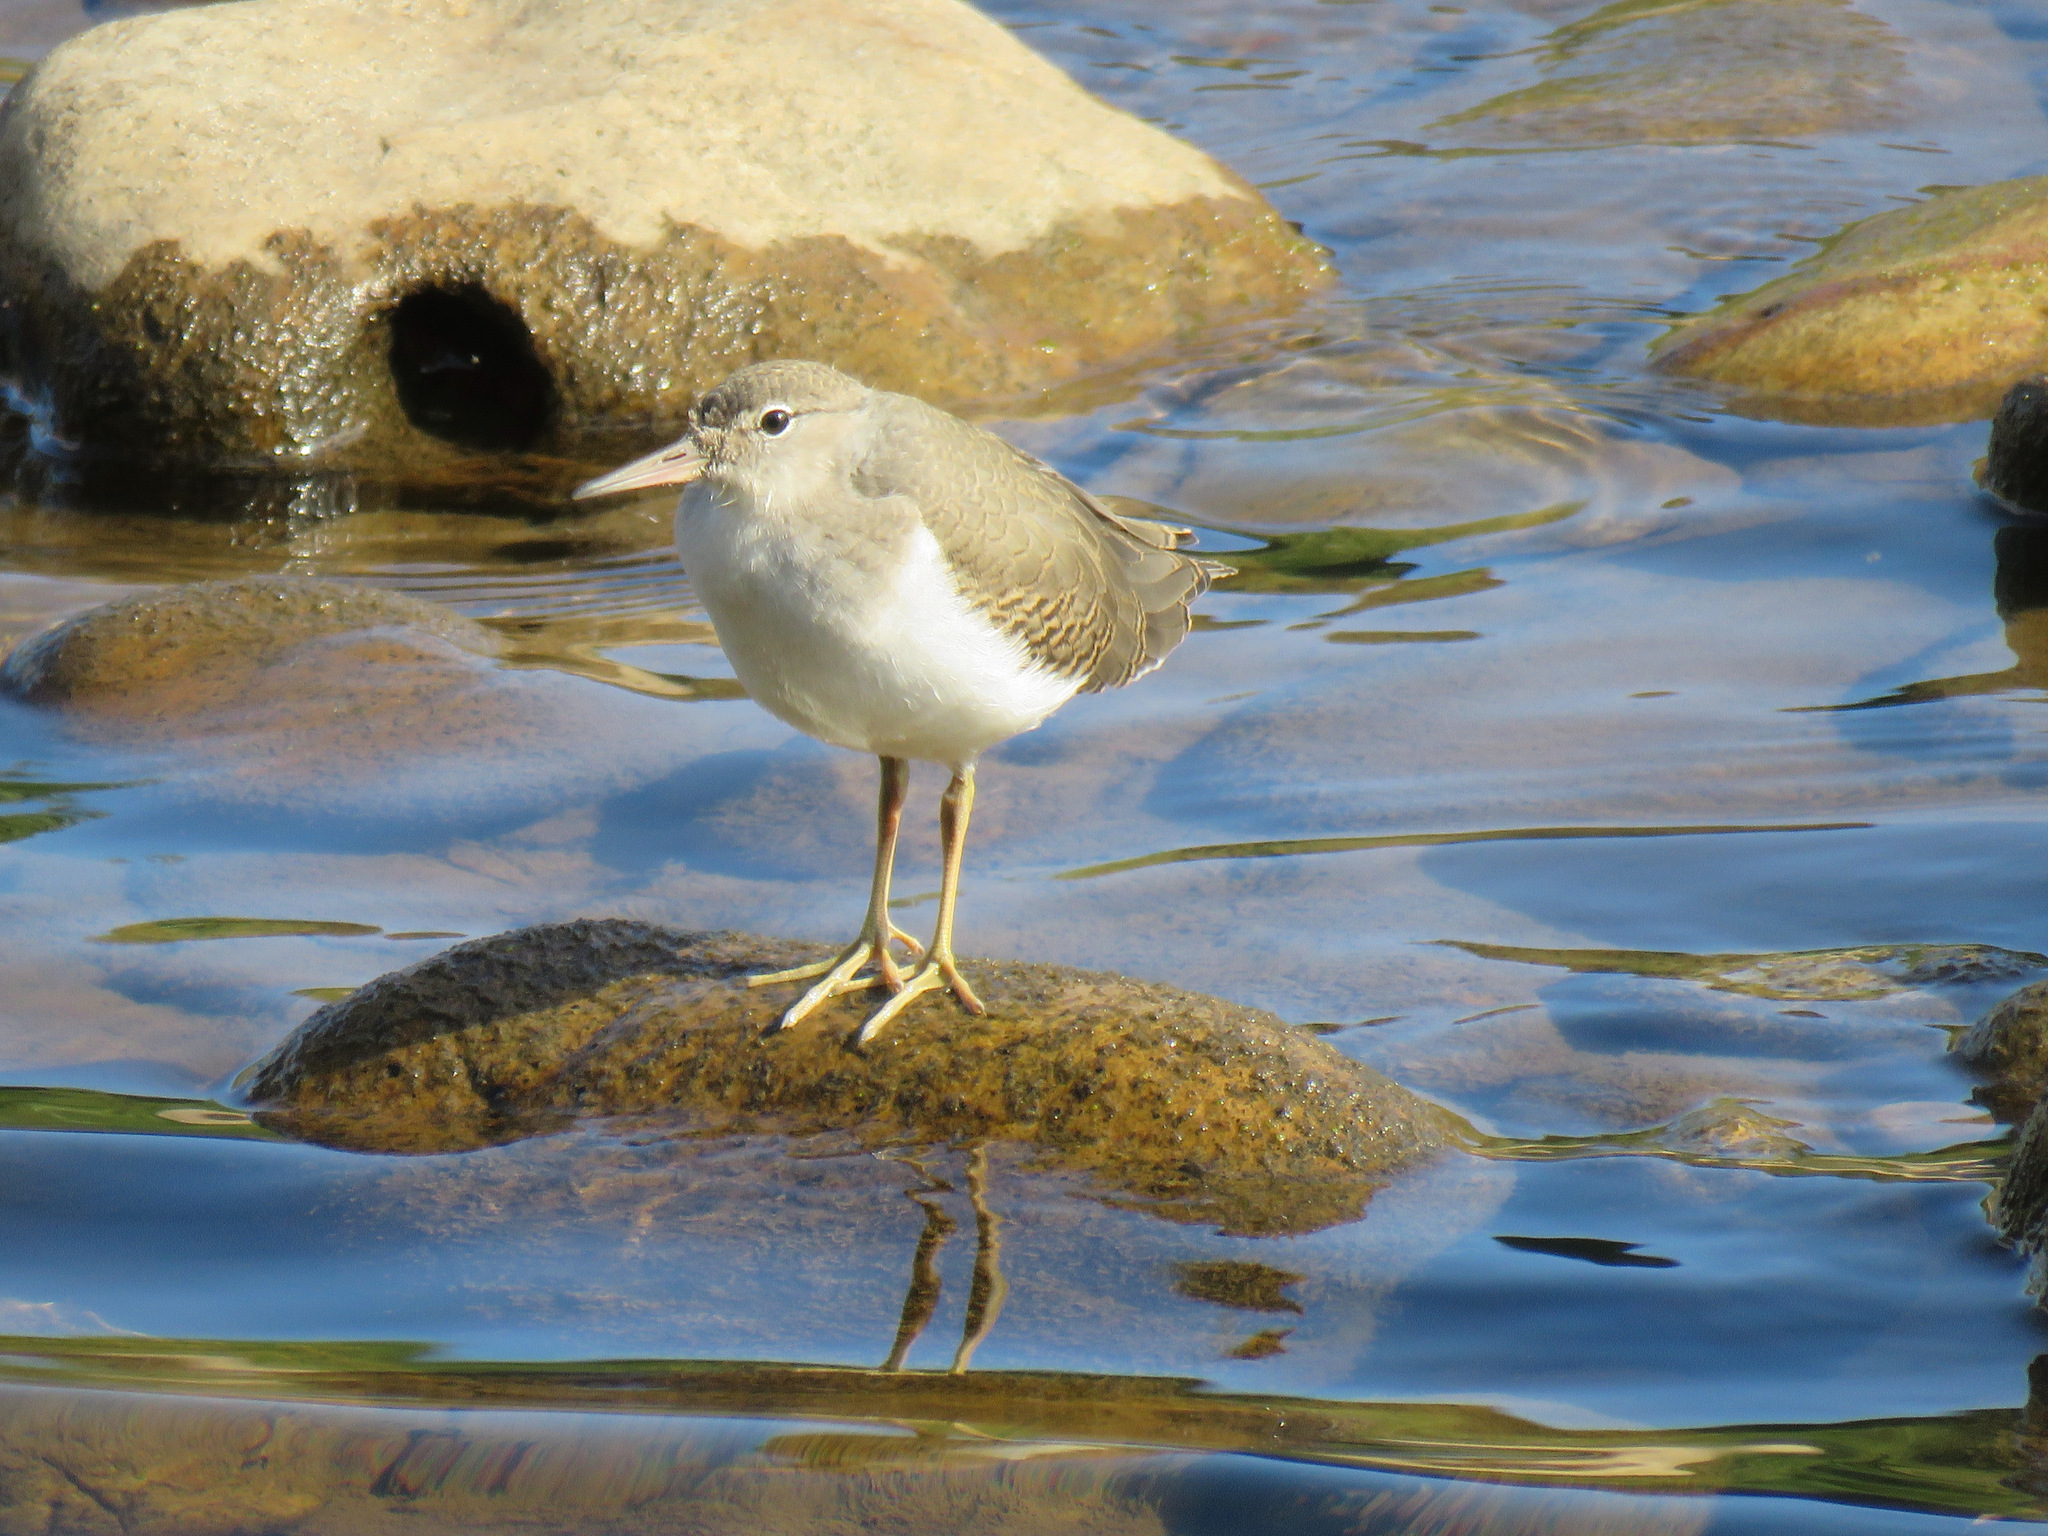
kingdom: Animalia
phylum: Chordata
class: Aves
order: Charadriiformes
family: Scolopacidae
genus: Actitis
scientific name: Actitis macularius
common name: Spotted sandpiper
